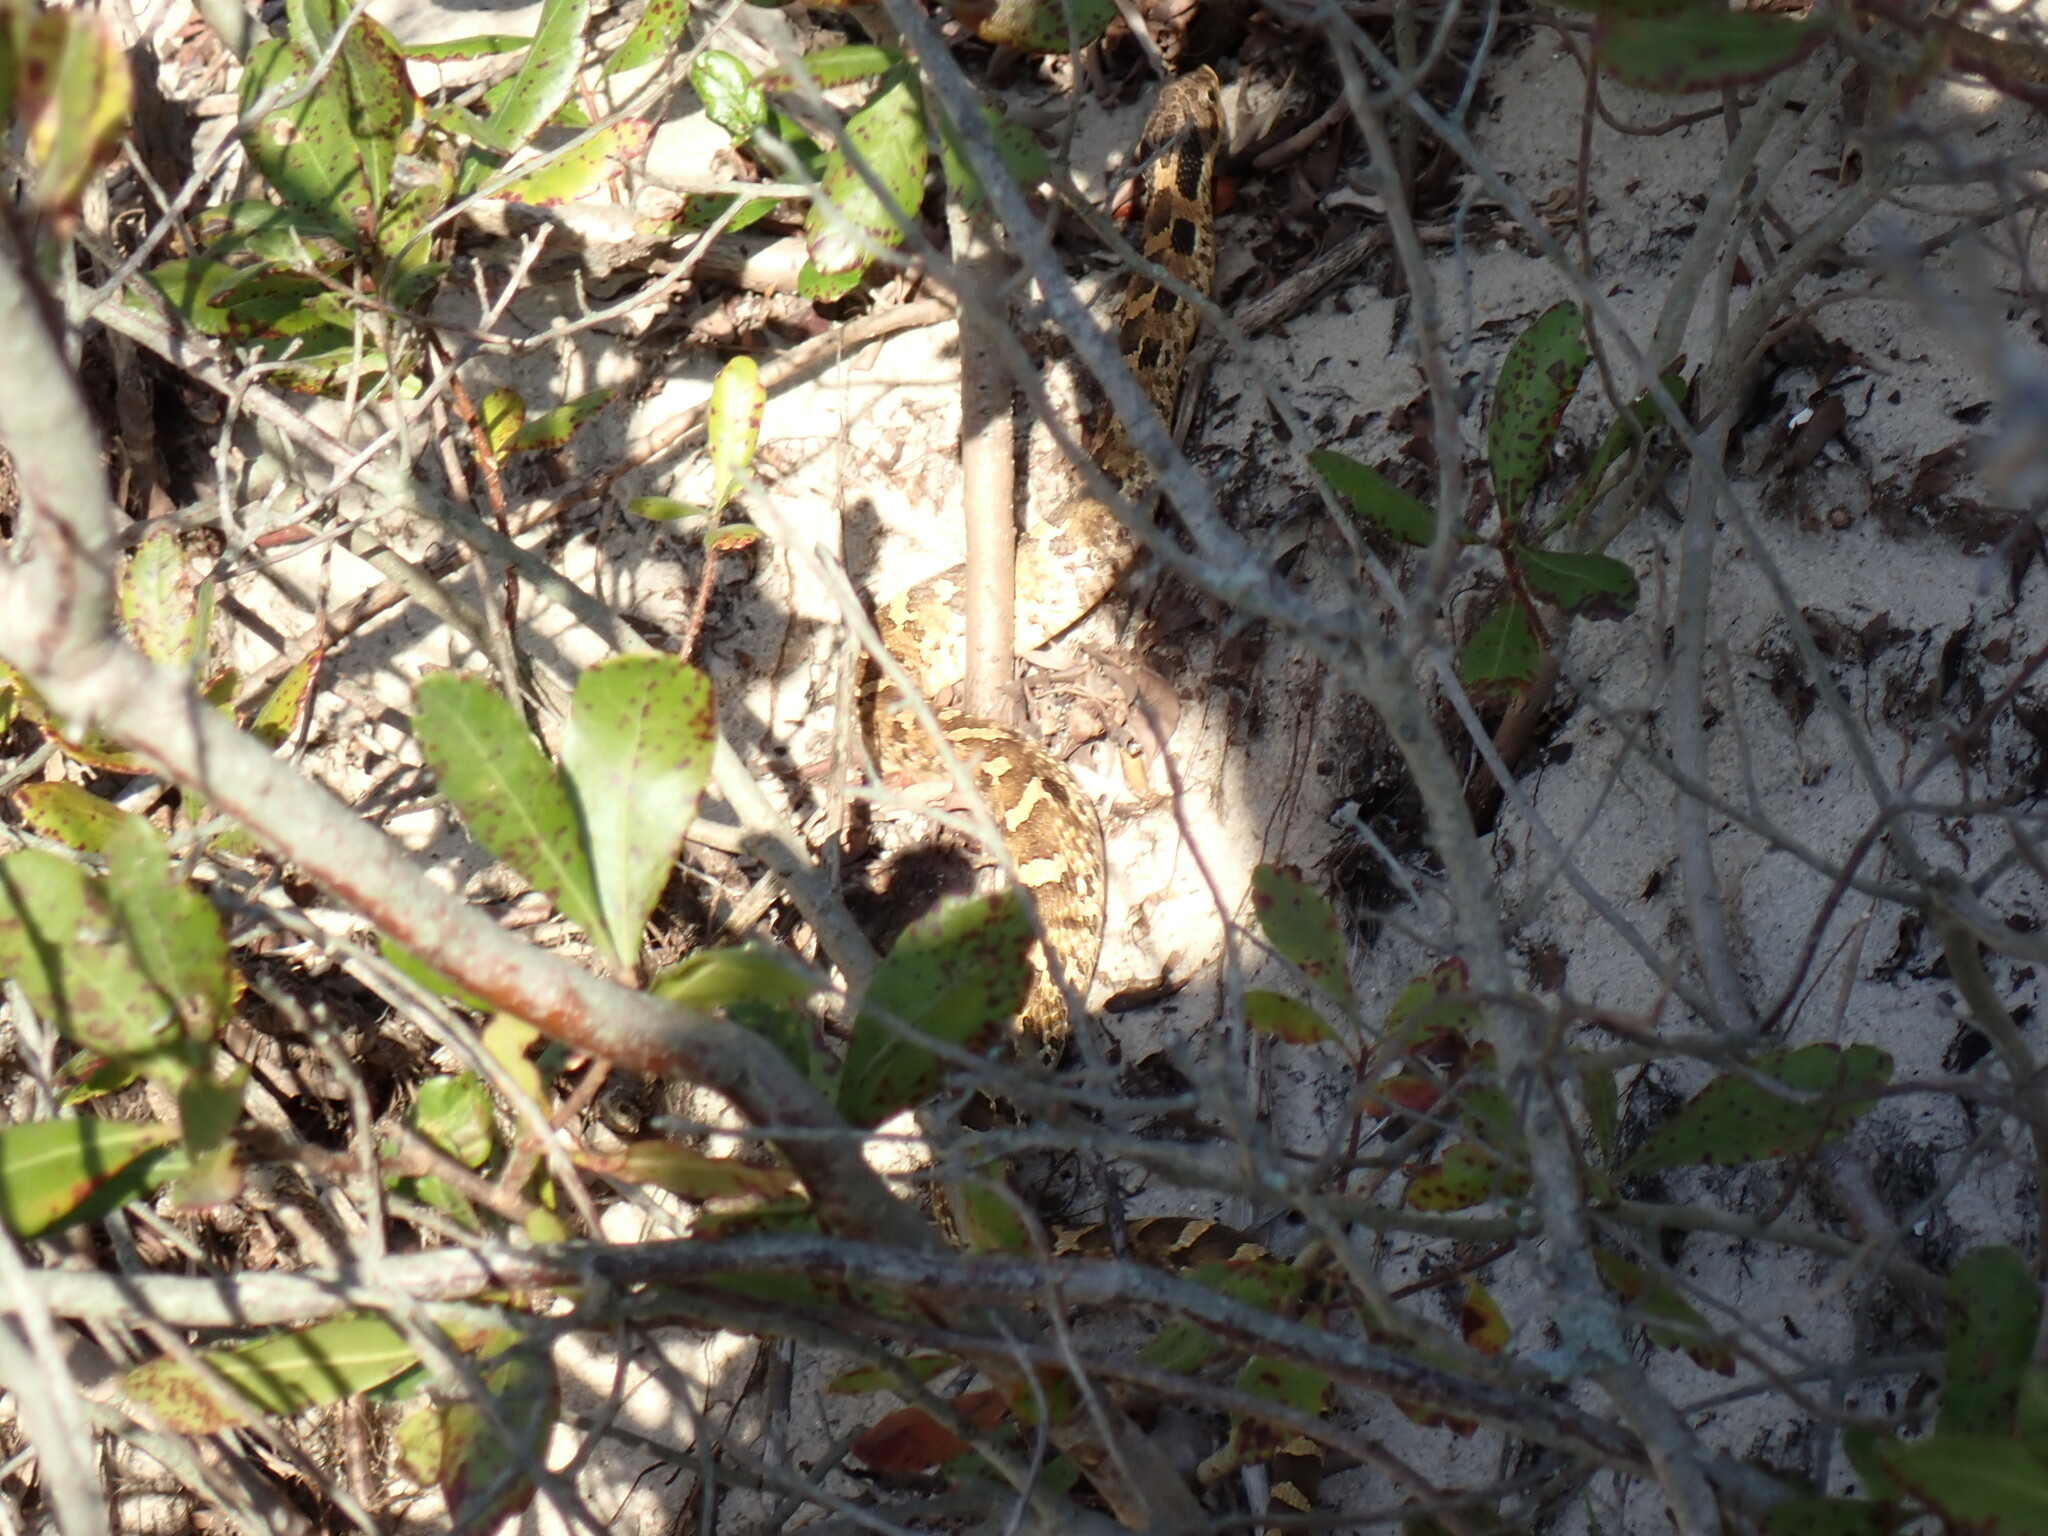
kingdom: Animalia
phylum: Chordata
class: Squamata
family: Colubridae
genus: Heterodon
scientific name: Heterodon platirhinos
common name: Eastern hognose snake
